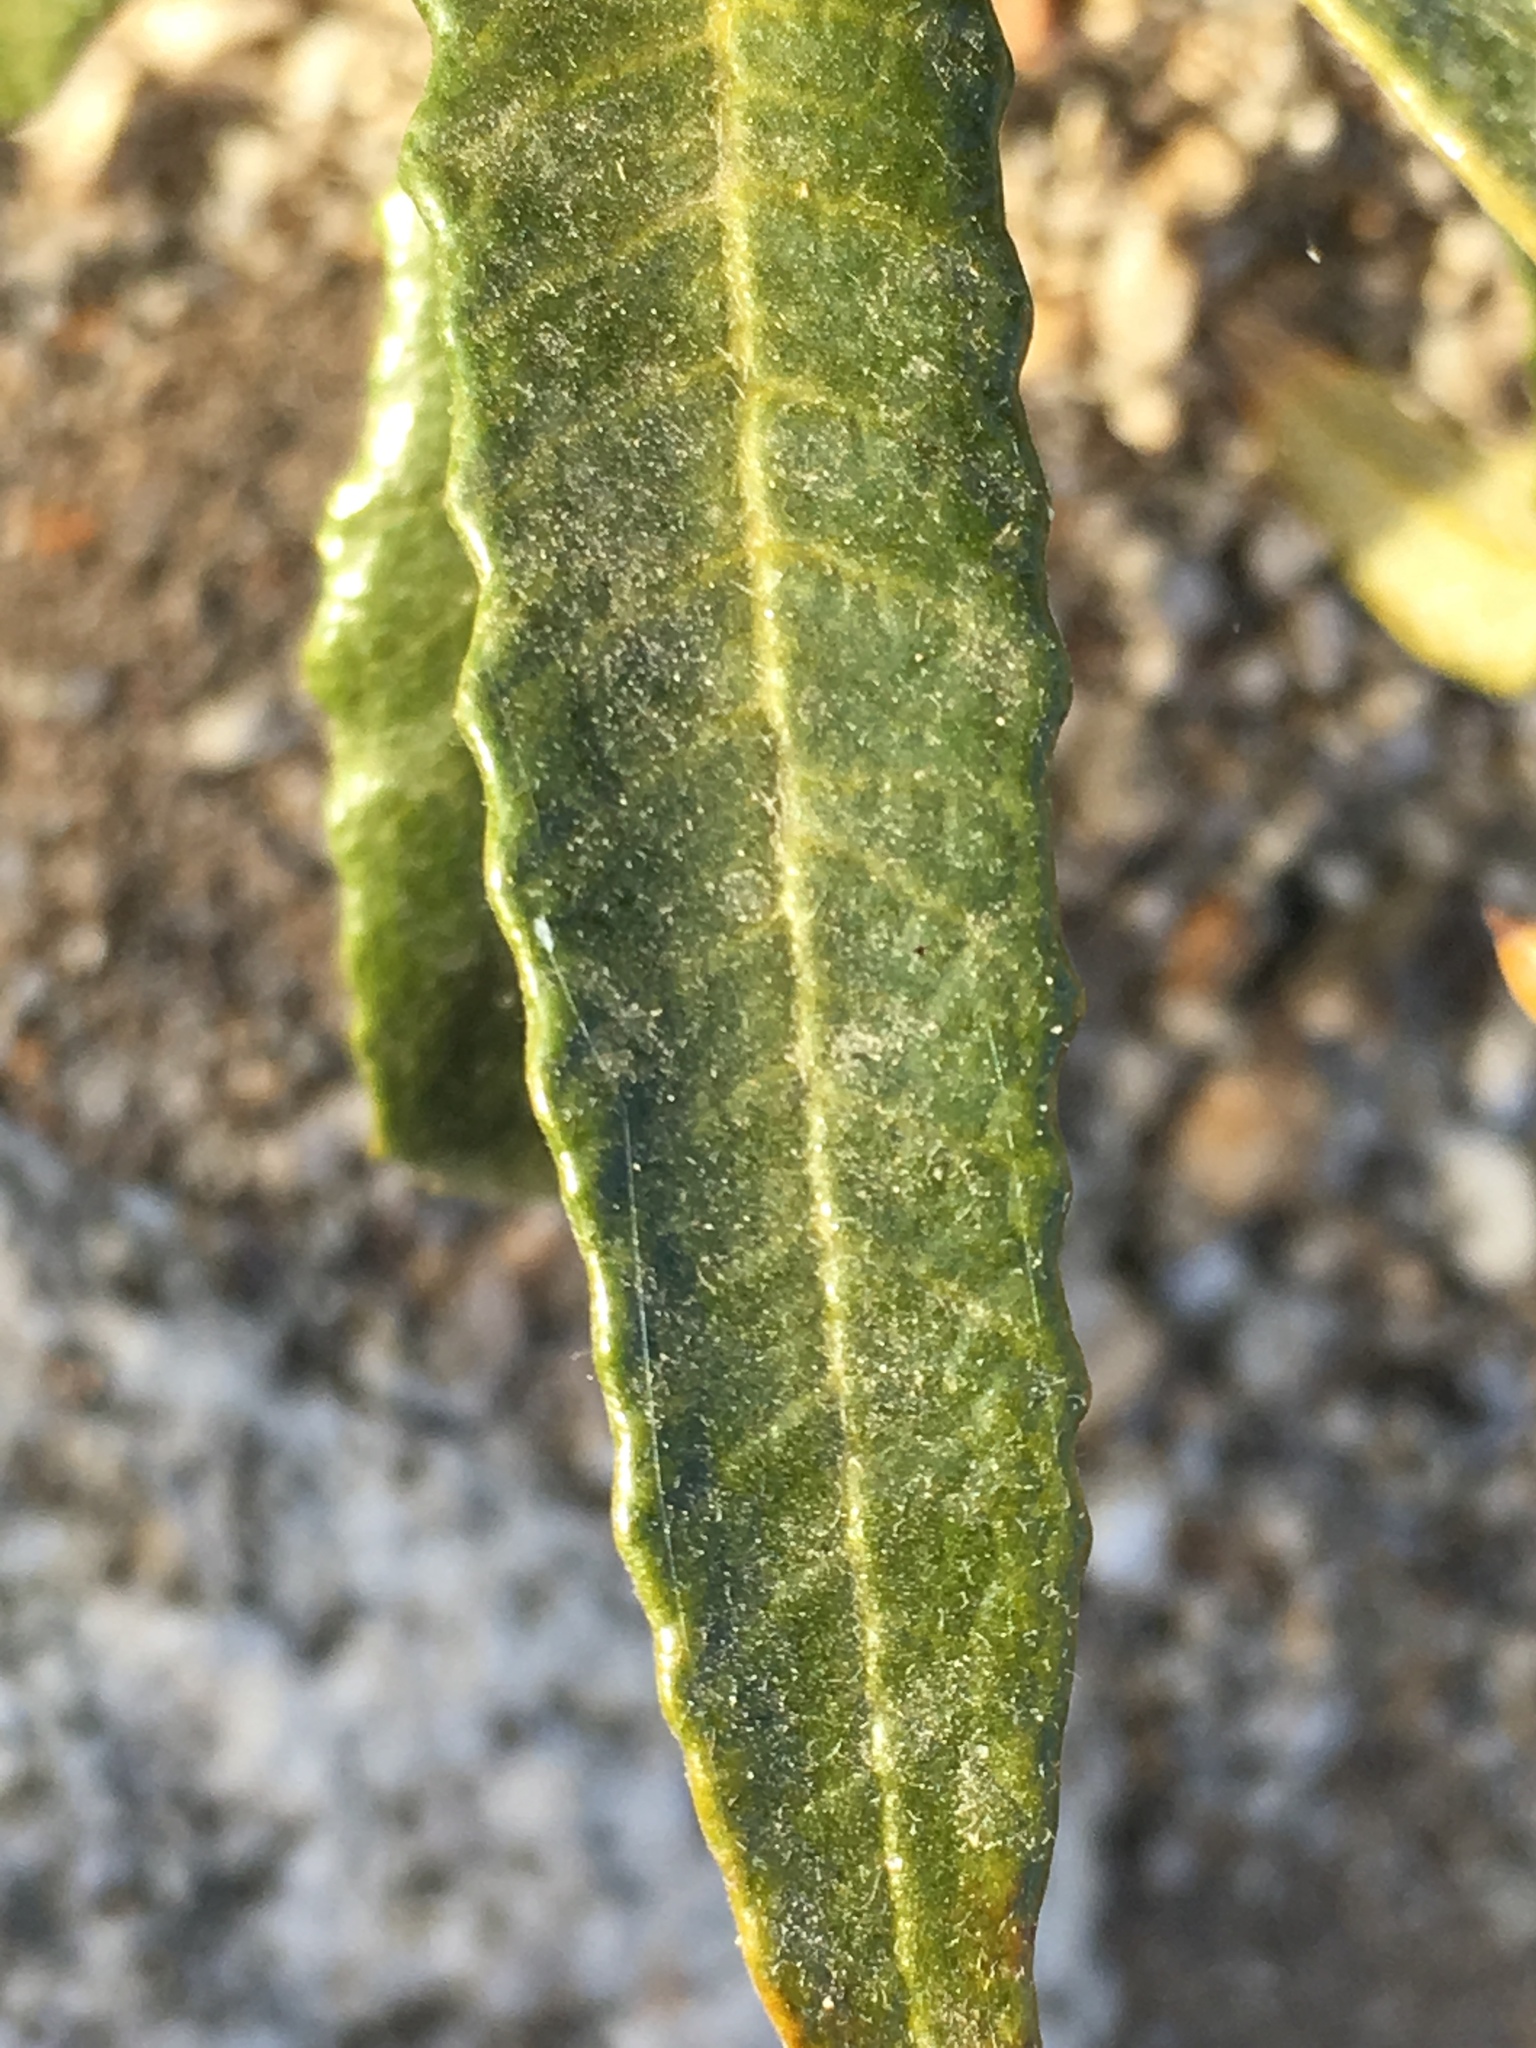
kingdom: Plantae
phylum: Tracheophyta
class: Magnoliopsida
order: Boraginales
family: Namaceae
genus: Eriodictyon
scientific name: Eriodictyon trichocalyx
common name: Hairy yerba-santa
